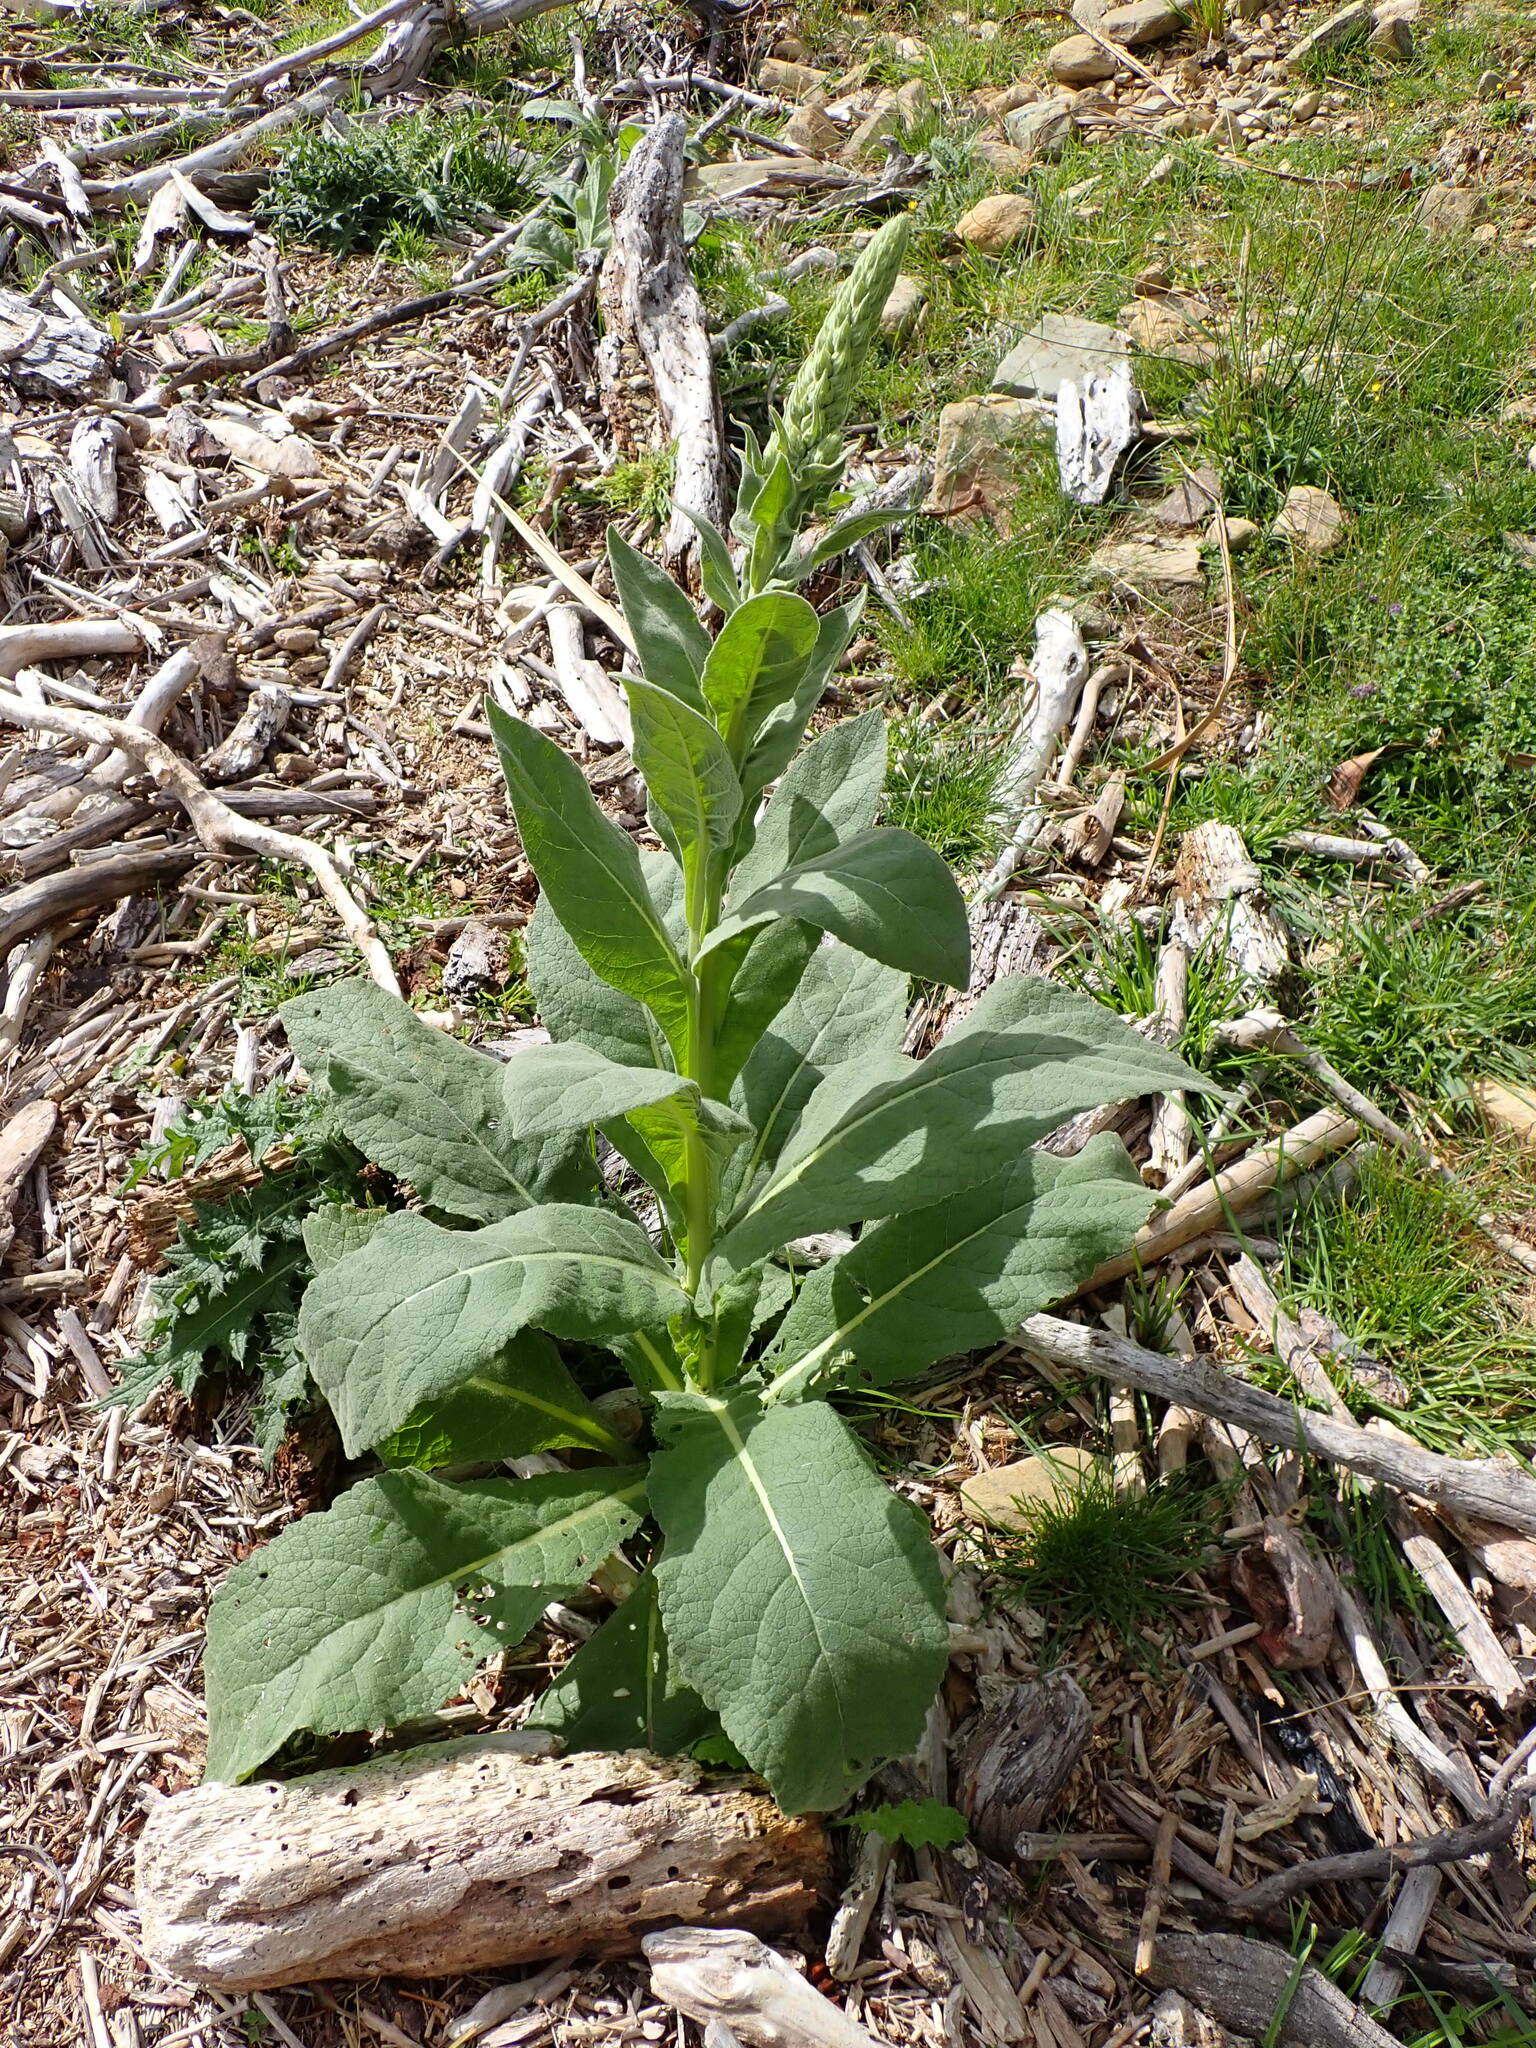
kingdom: Plantae
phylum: Tracheophyta
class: Magnoliopsida
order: Lamiales
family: Scrophulariaceae
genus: Verbascum
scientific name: Verbascum thapsus
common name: Common mullein
